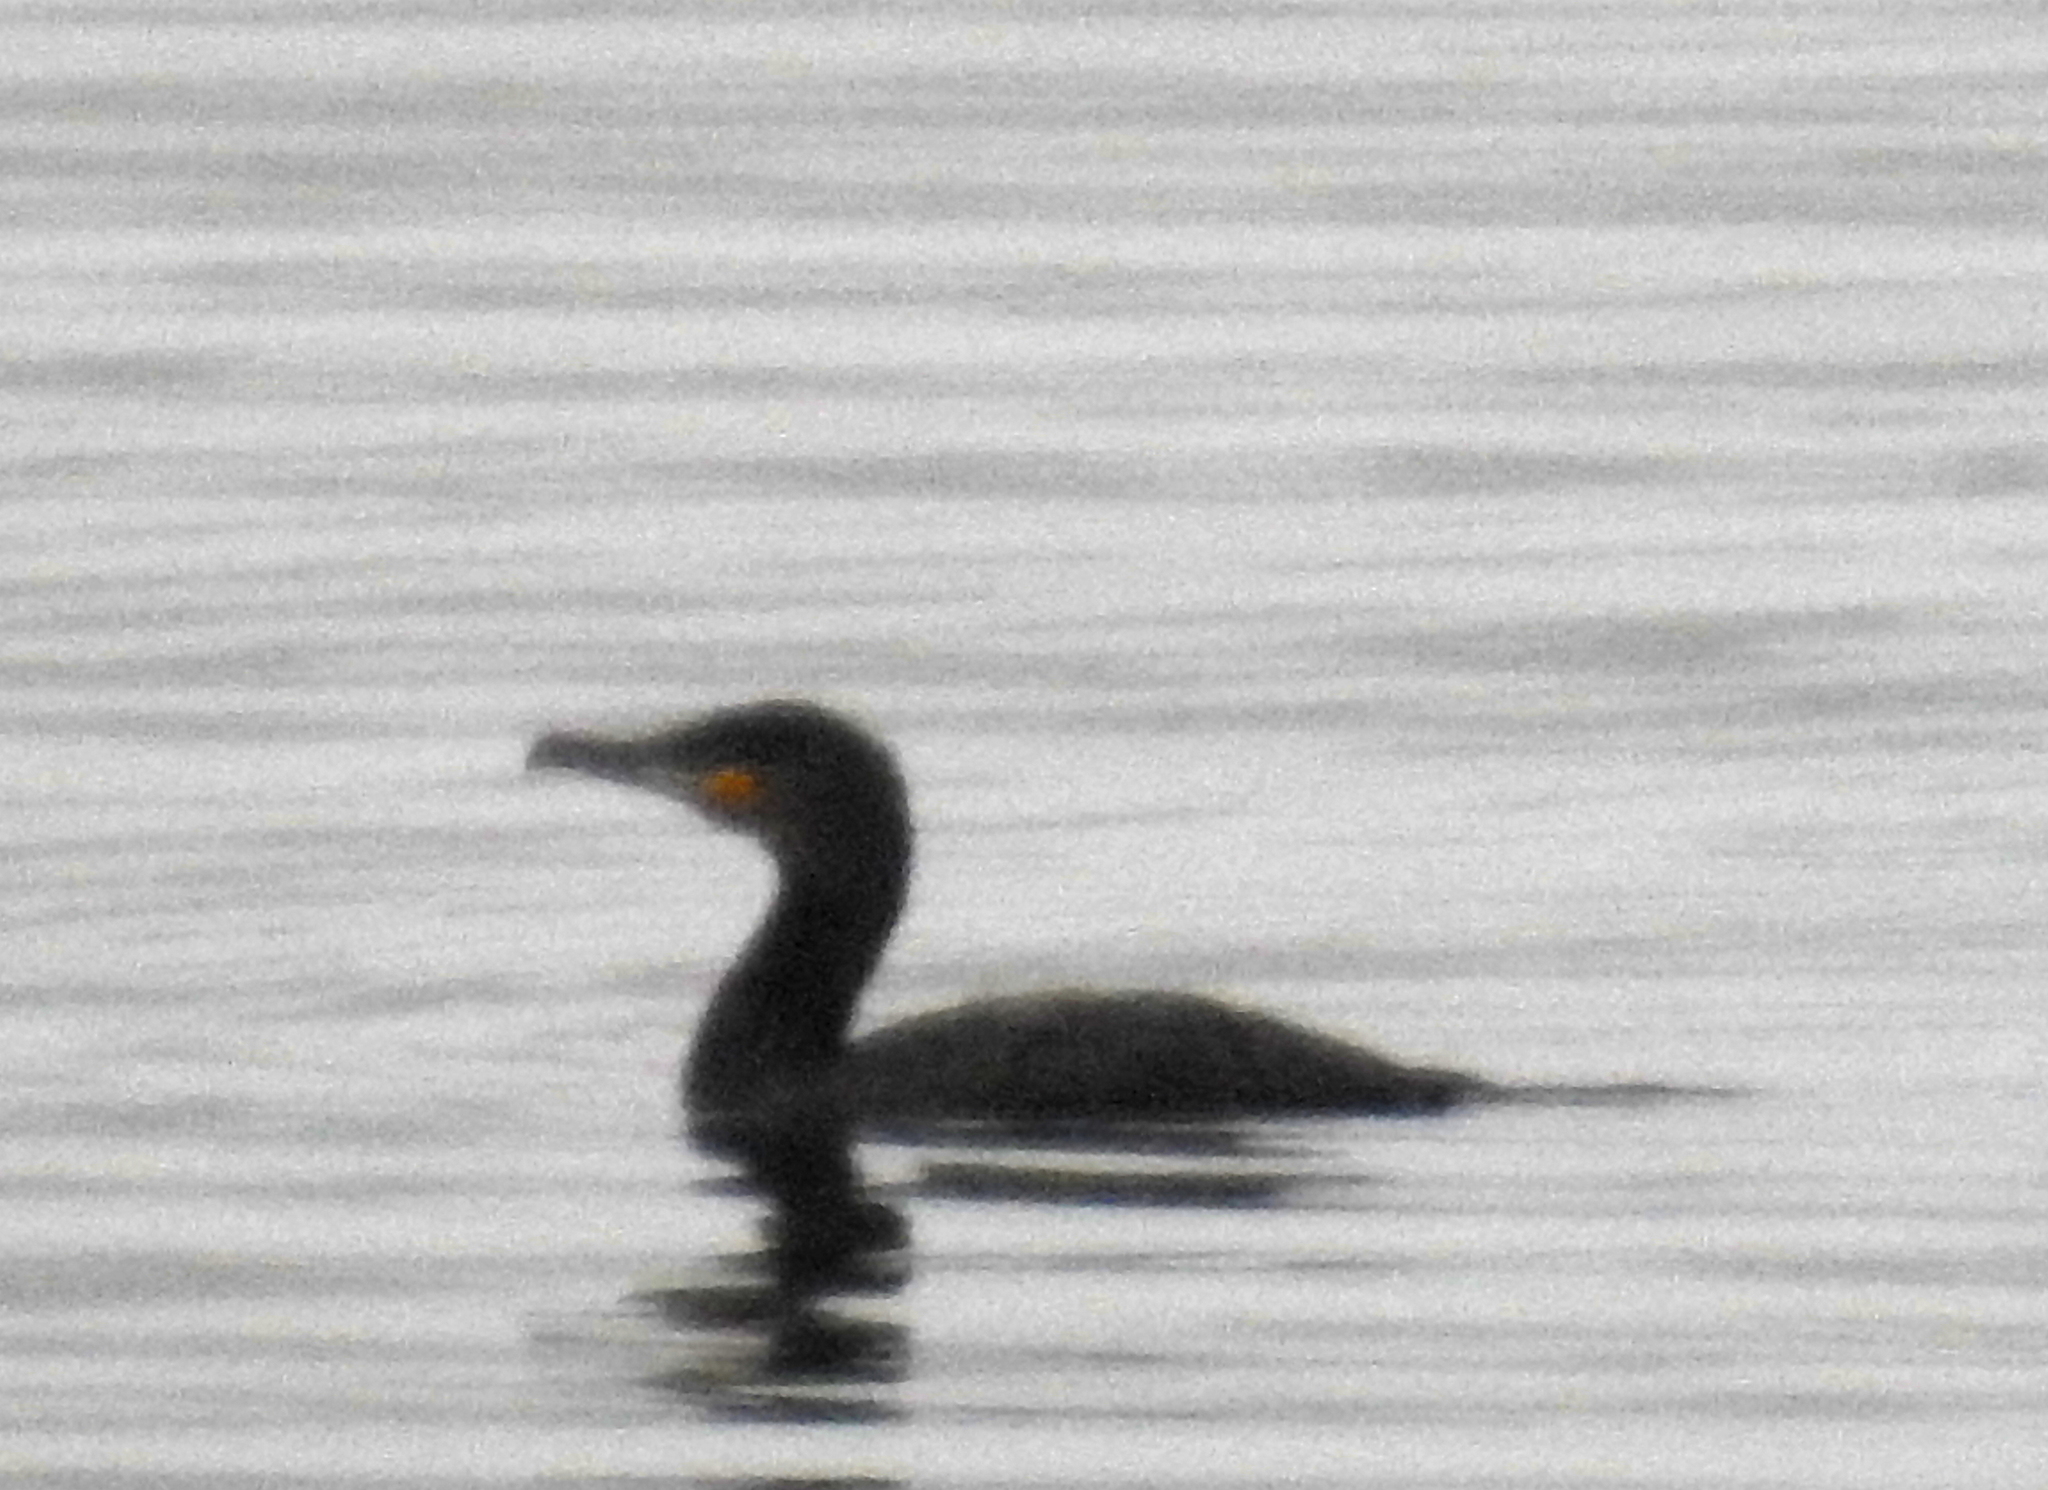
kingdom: Animalia
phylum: Chordata
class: Aves
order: Suliformes
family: Phalacrocoracidae
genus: Phalacrocorax
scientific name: Phalacrocorax carbo
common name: Great cormorant
